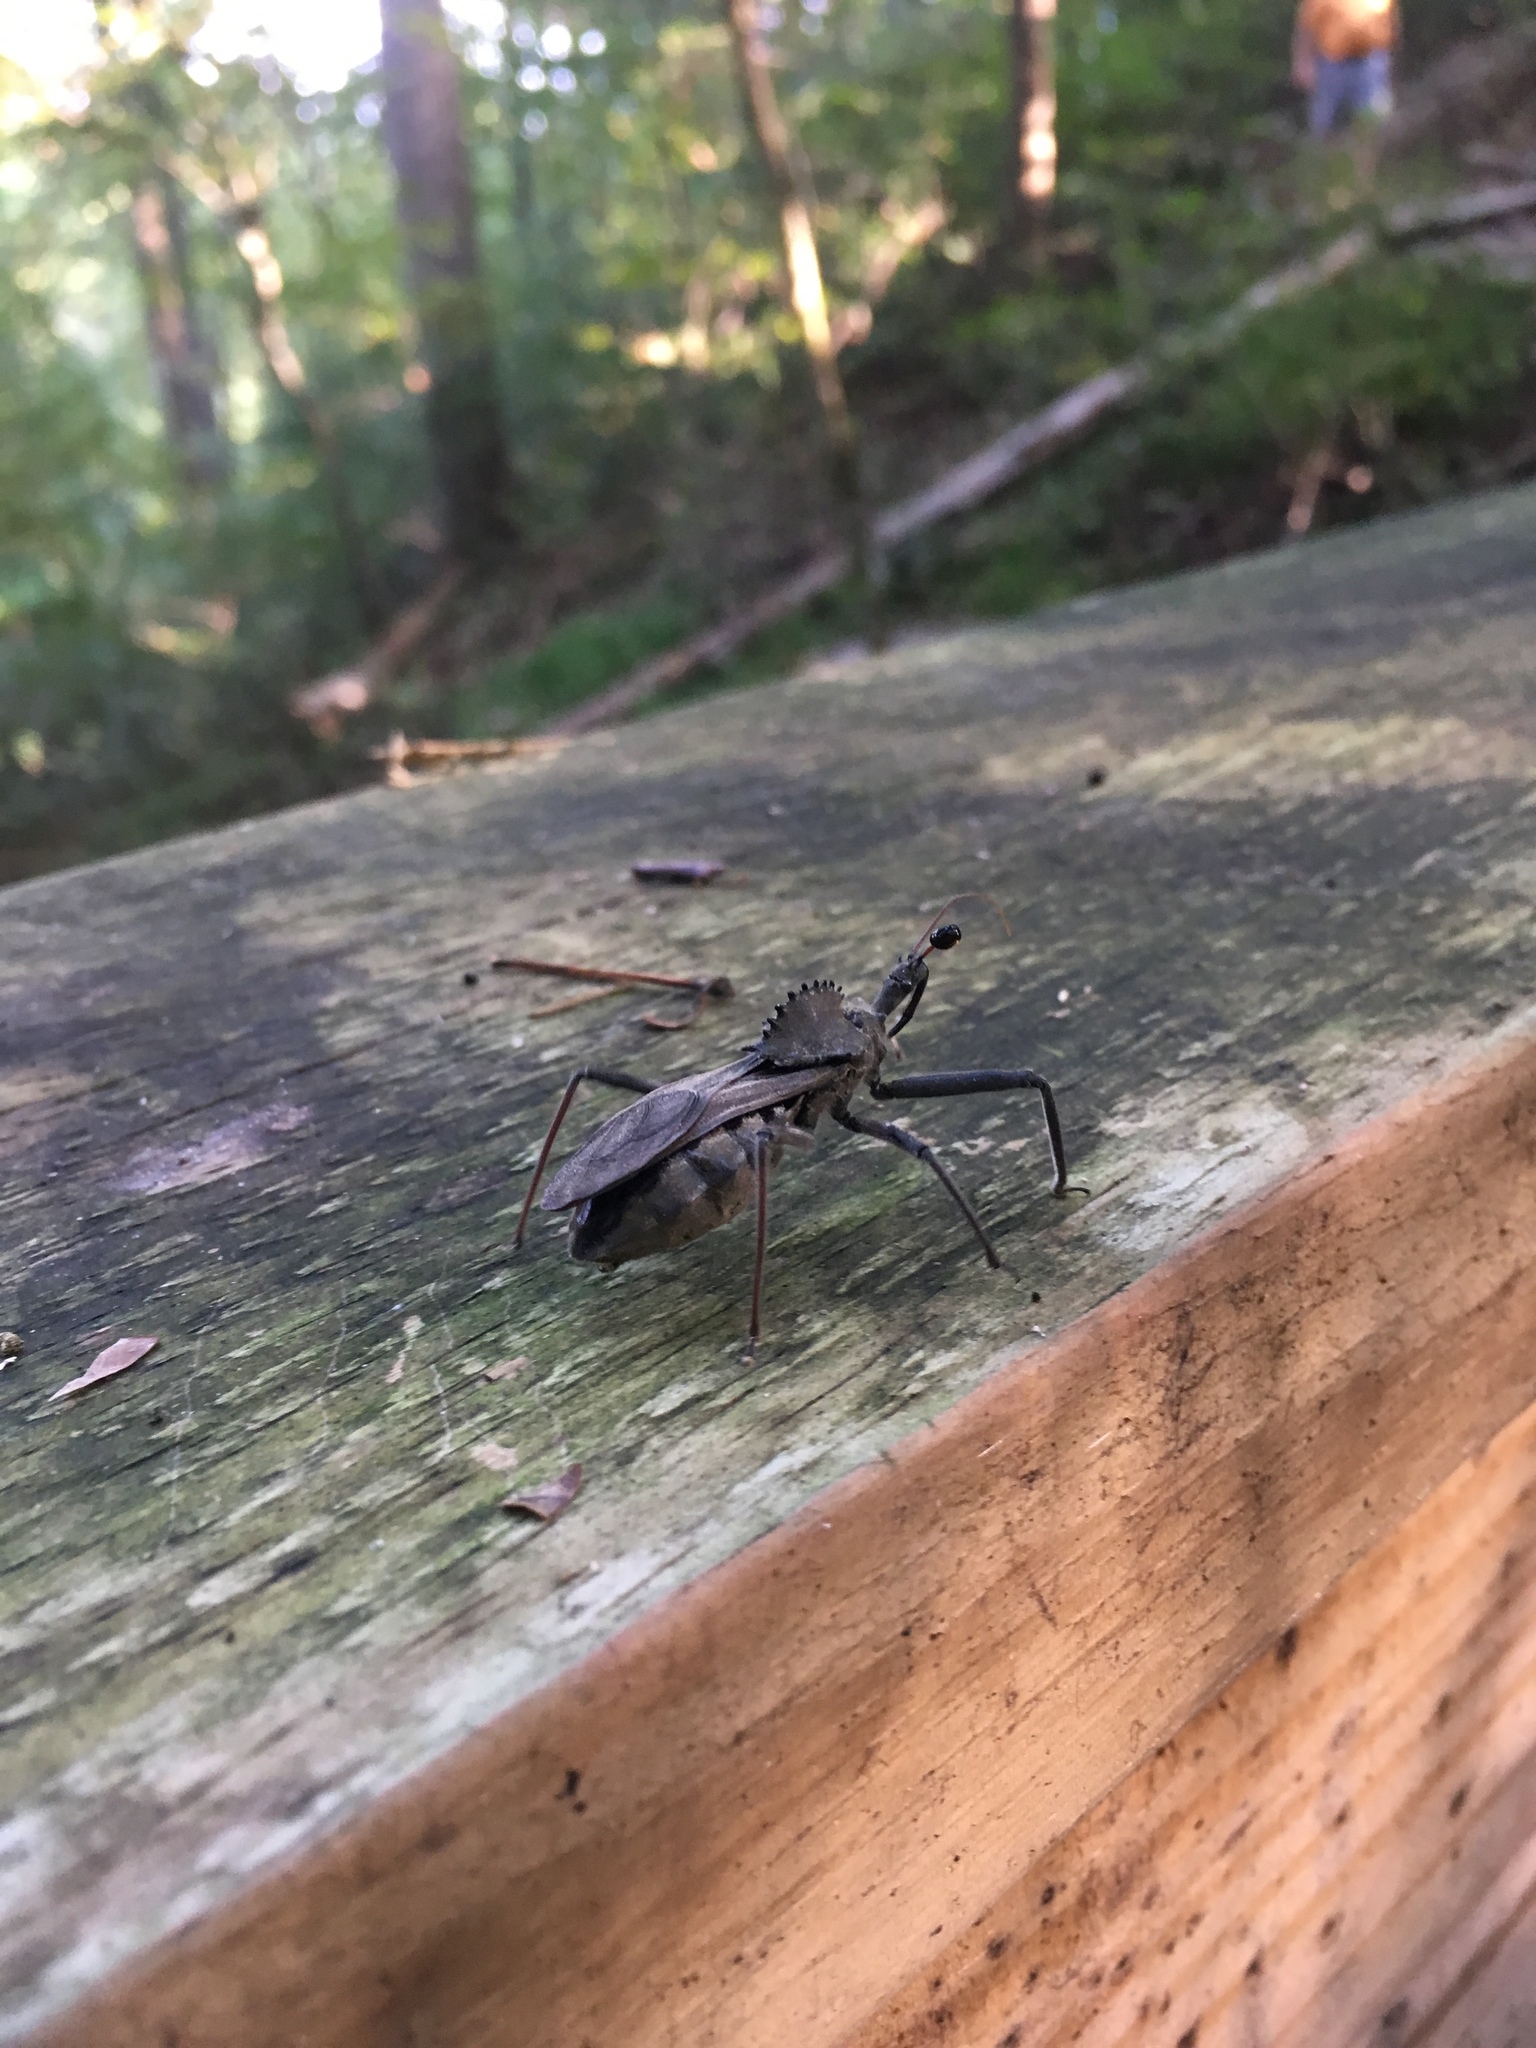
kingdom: Animalia
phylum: Arthropoda
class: Insecta
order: Hemiptera
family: Reduviidae
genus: Arilus
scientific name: Arilus cristatus
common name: North american wheel bug
